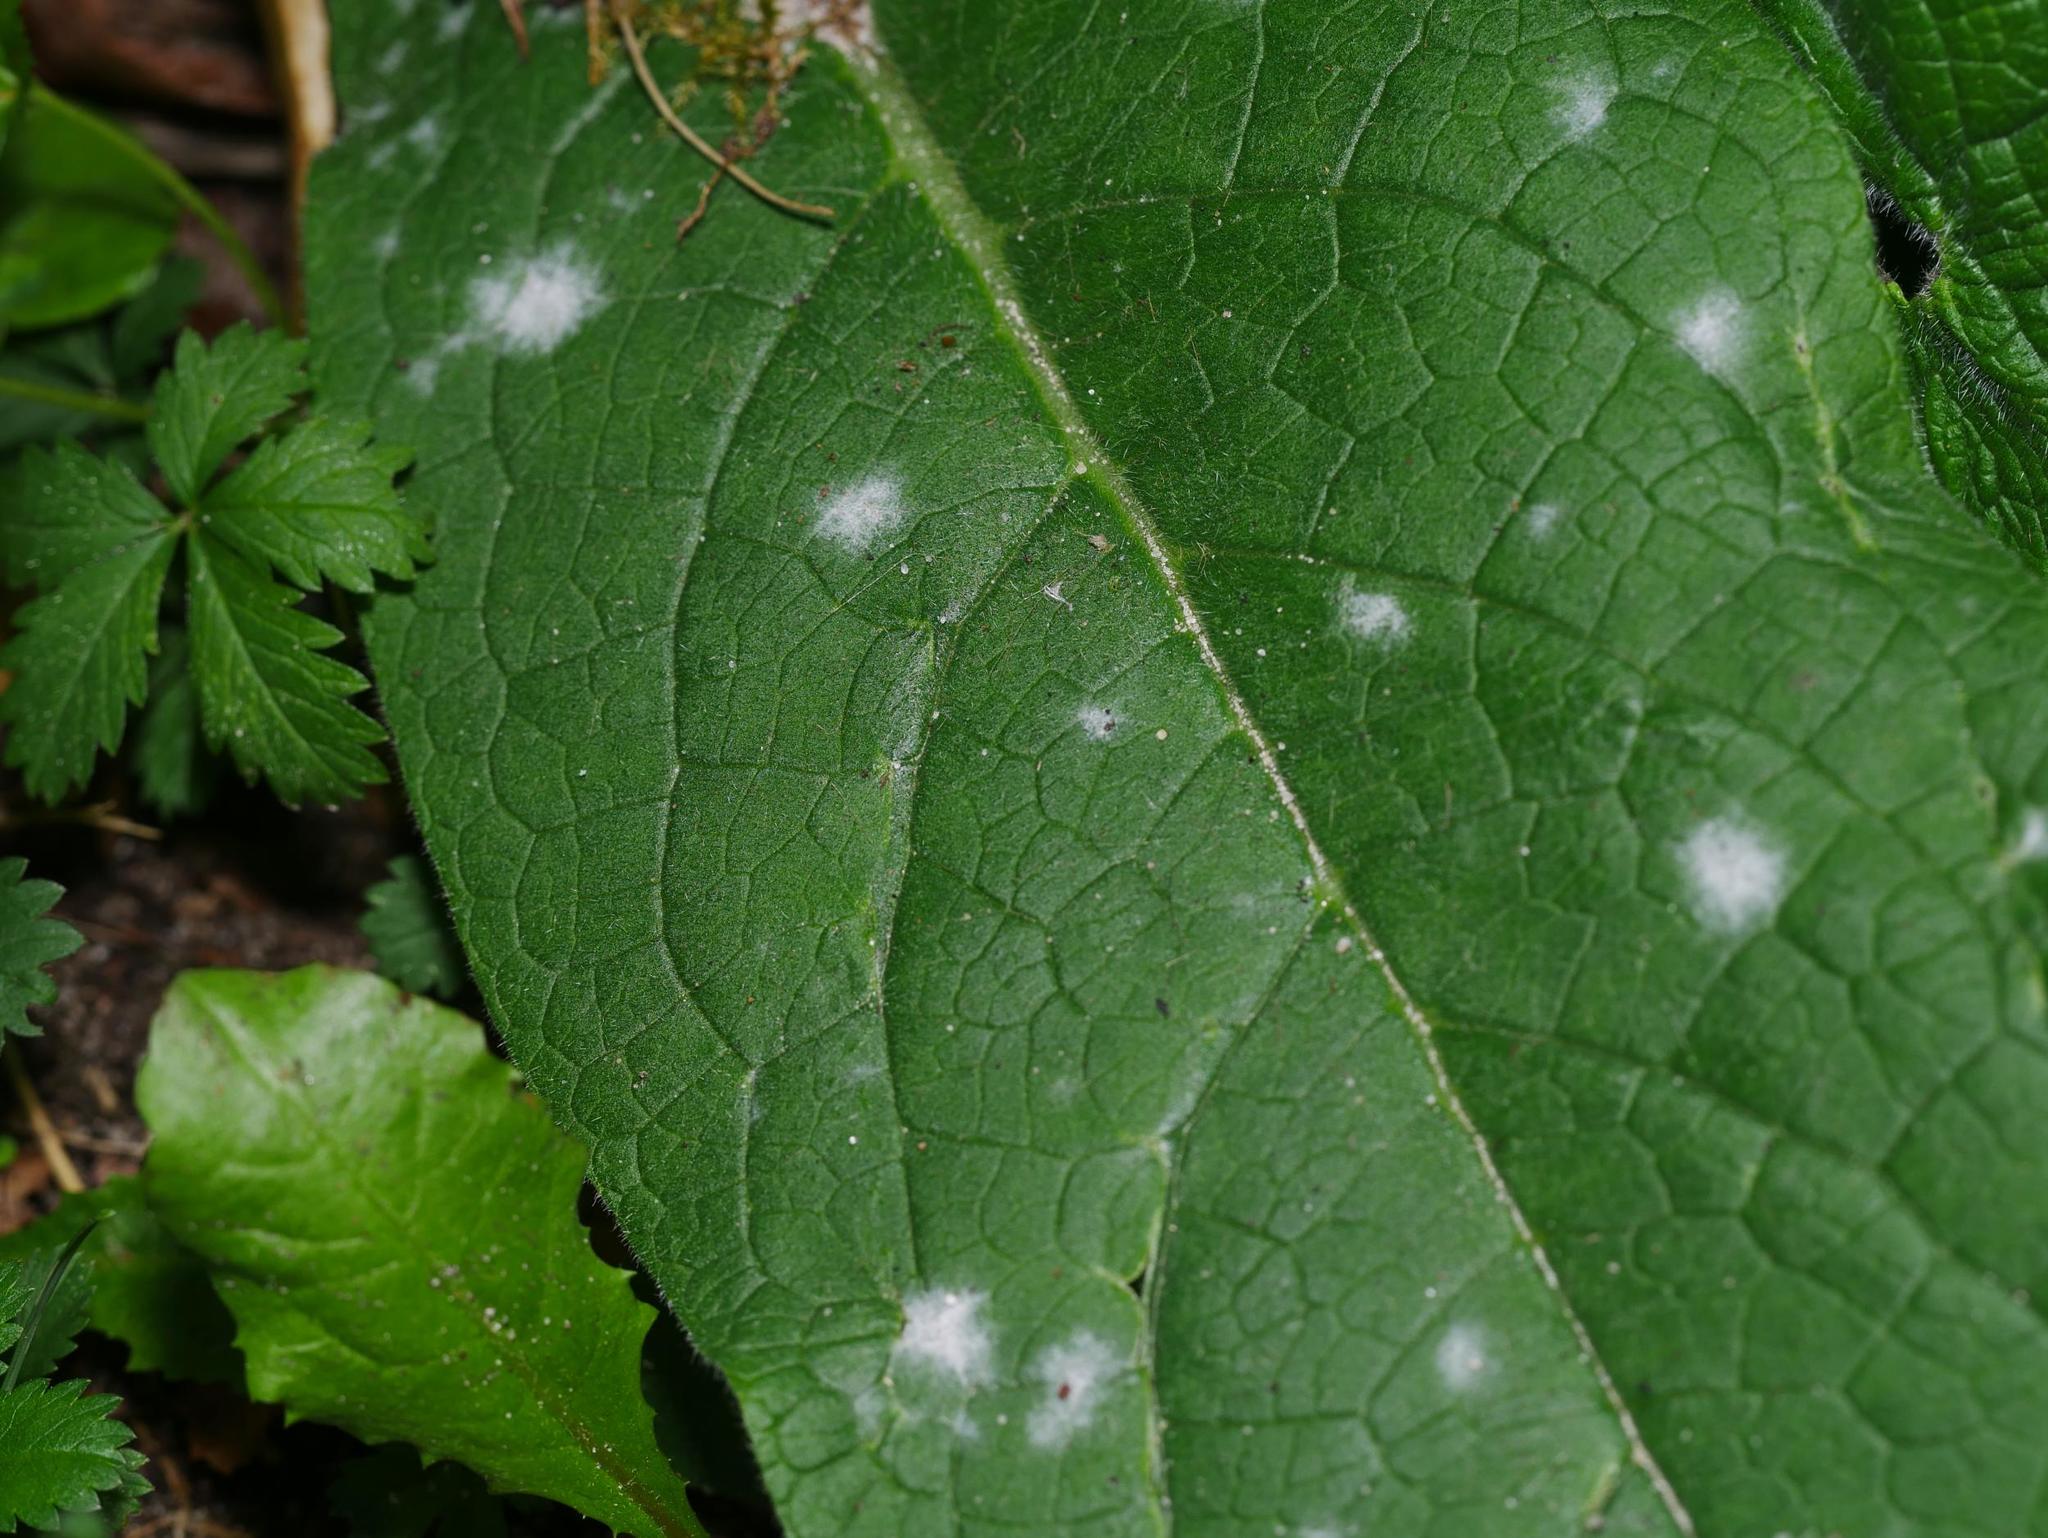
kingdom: Fungi
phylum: Ascomycota
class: Leotiomycetes
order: Helotiales
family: Erysiphaceae
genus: Golovinomyces
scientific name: Golovinomyces asperifoliorum
